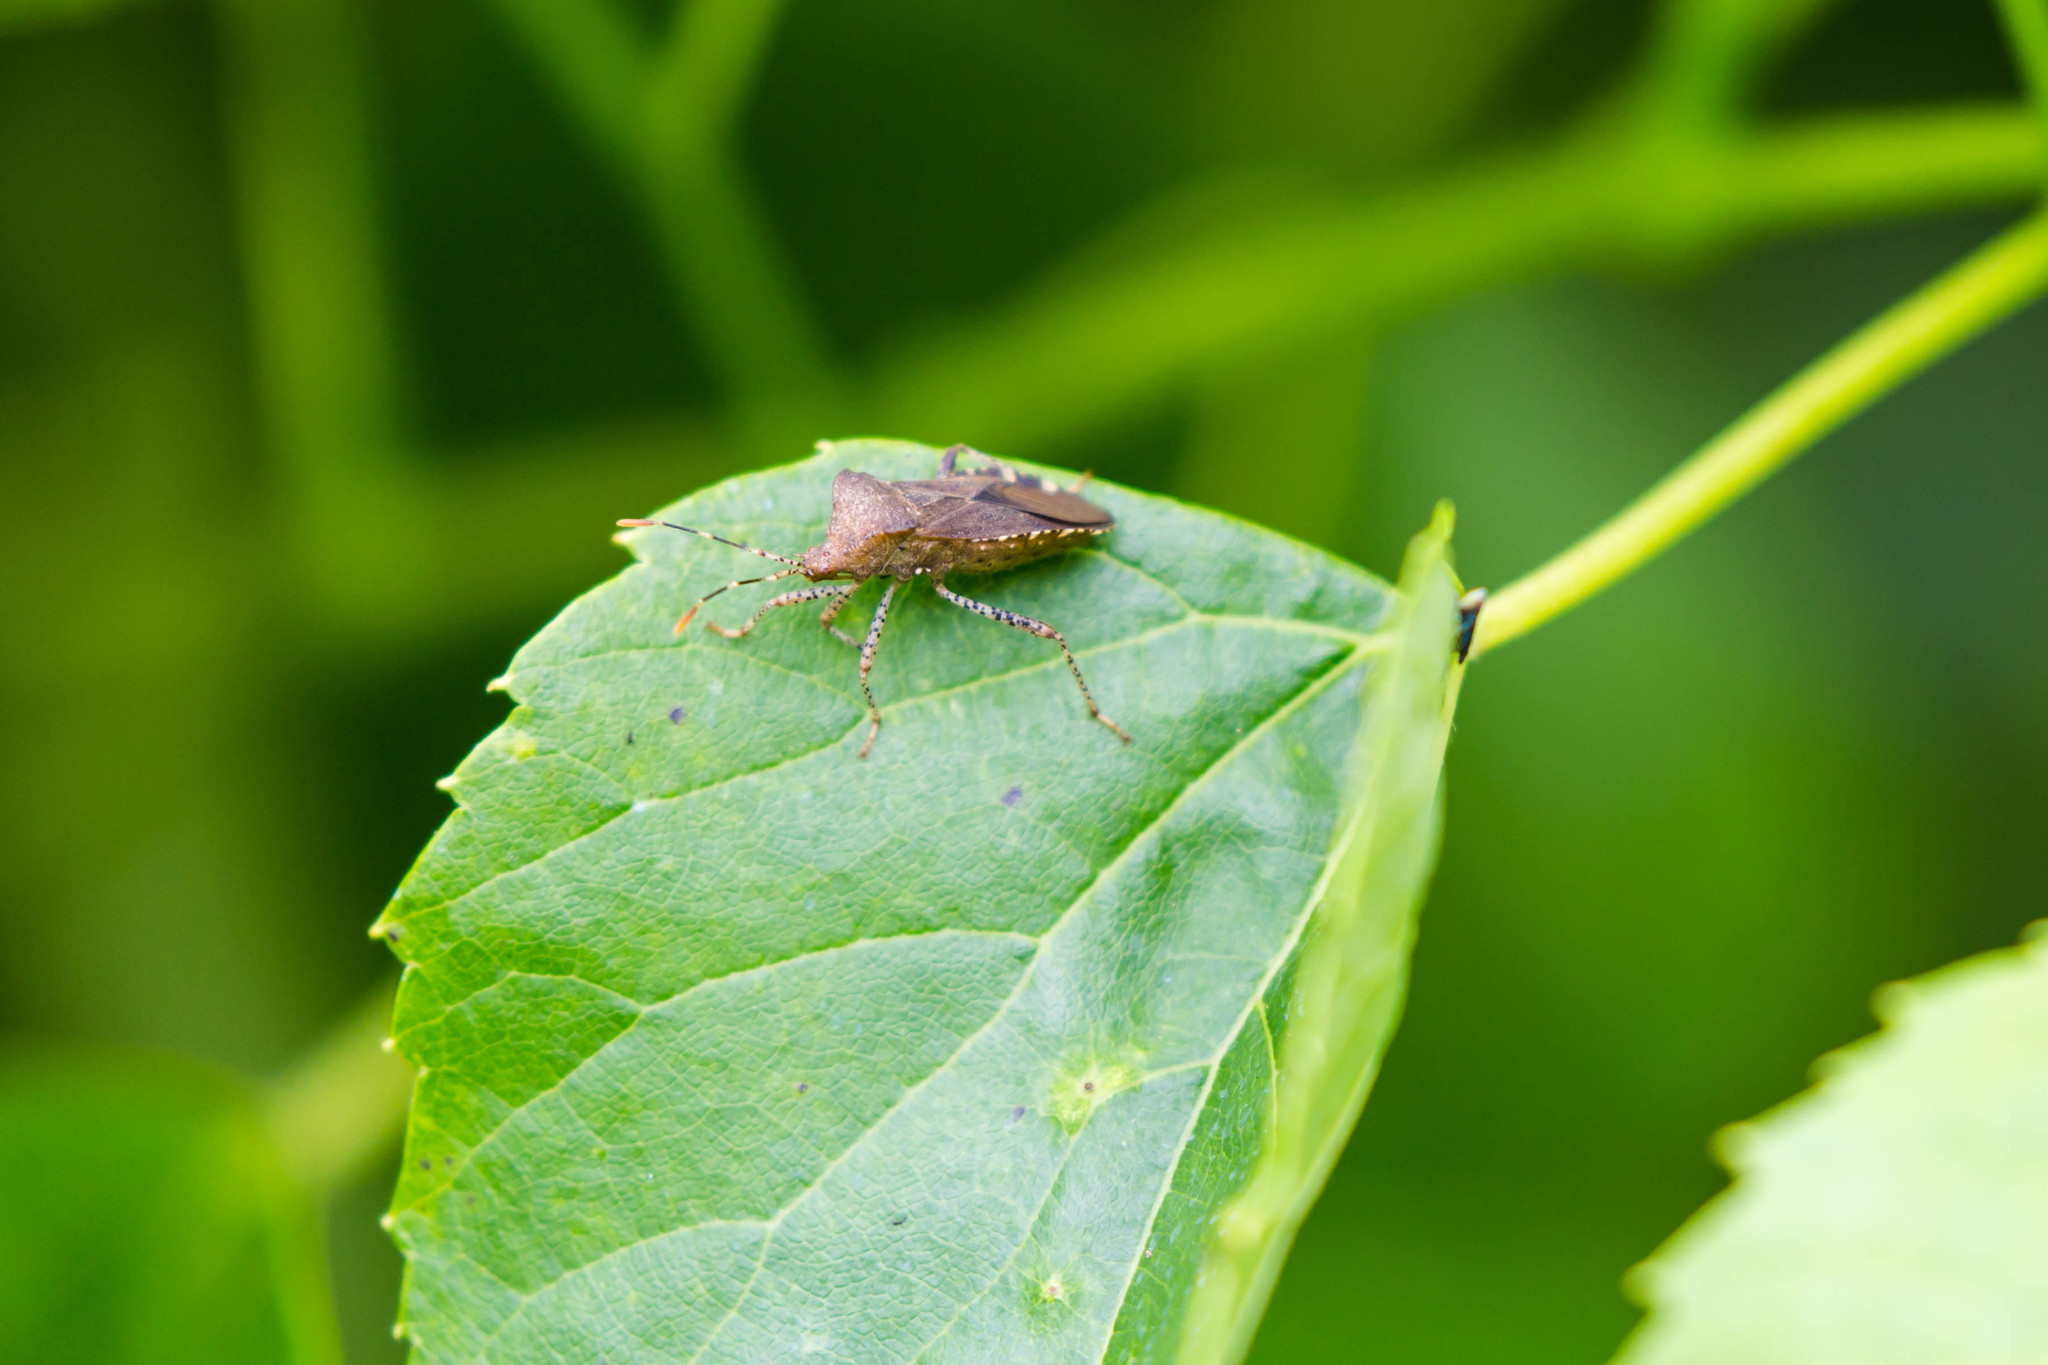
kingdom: Animalia
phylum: Arthropoda
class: Insecta
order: Hemiptera
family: Coreidae
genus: Anasa
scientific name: Anasa armigera
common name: Horned squash bug
